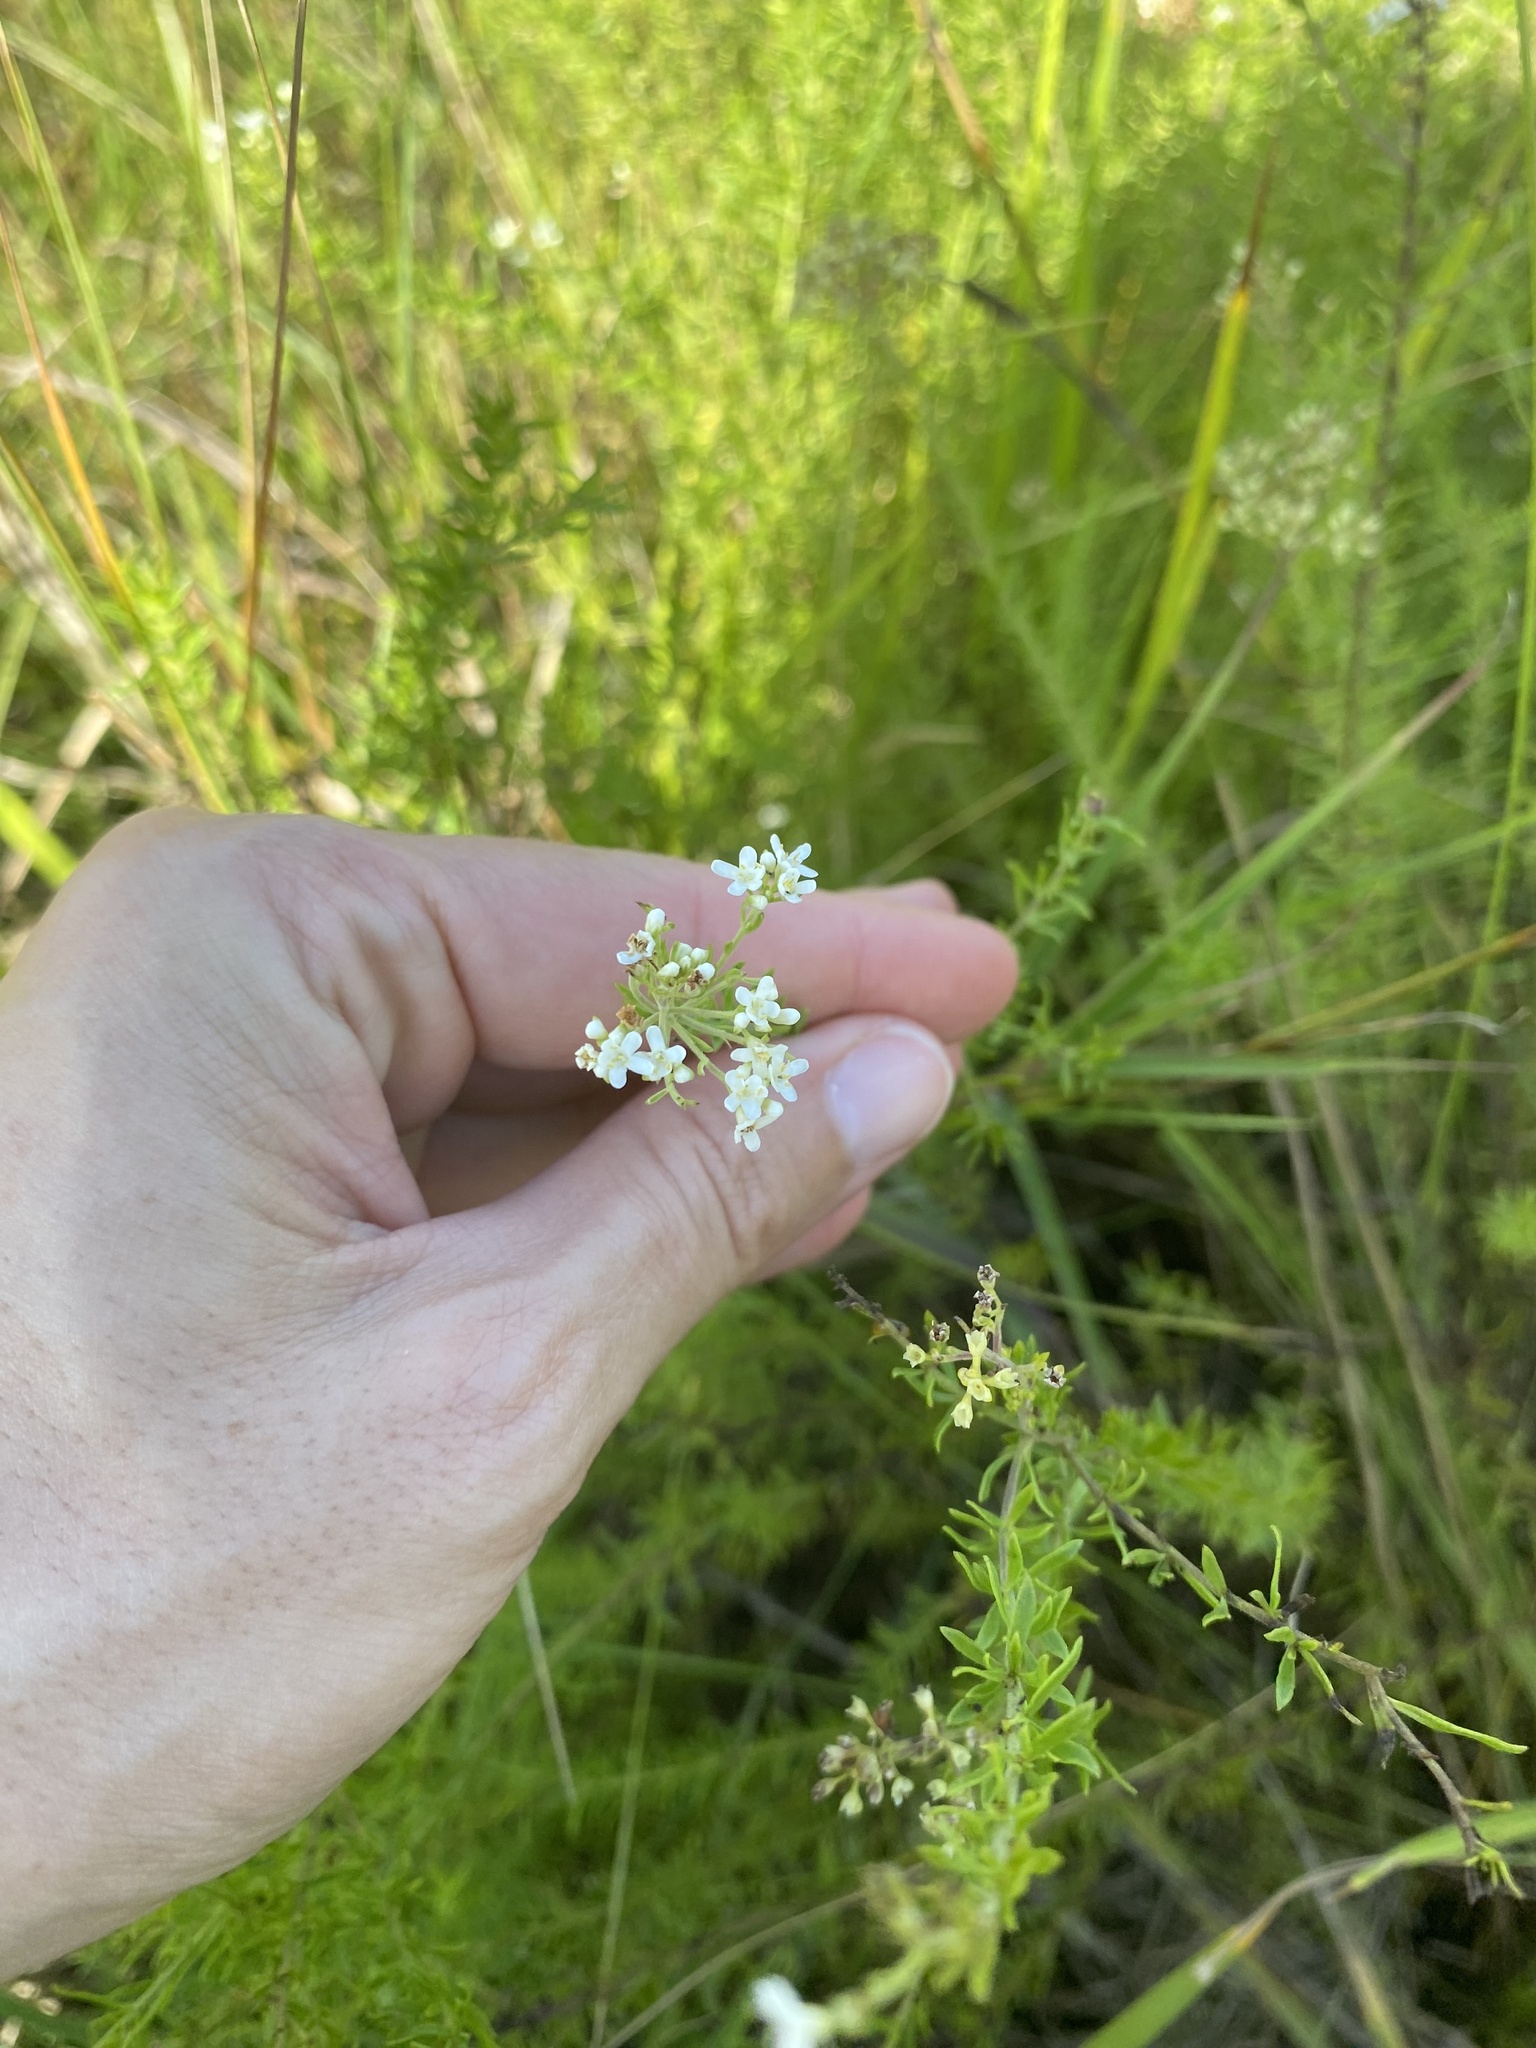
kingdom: Plantae
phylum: Tracheophyta
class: Magnoliopsida
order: Lamiales
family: Scrophulariaceae
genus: Selago
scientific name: Selago densiflora
